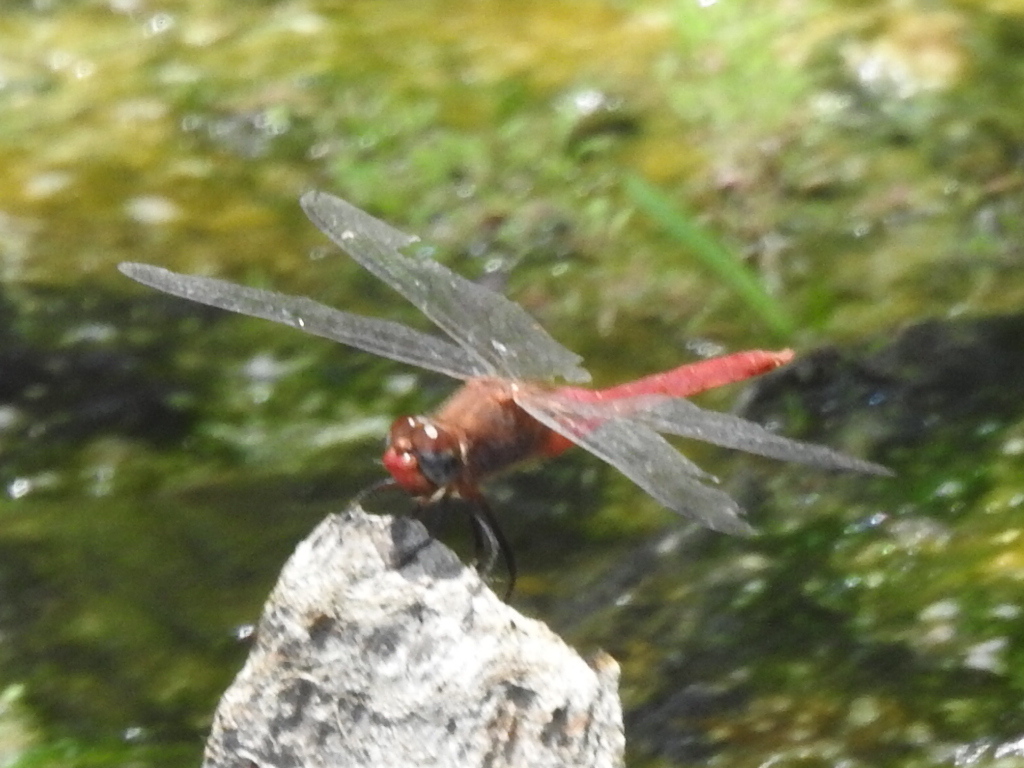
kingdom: Animalia
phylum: Arthropoda
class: Insecta
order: Odonata
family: Libellulidae
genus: Brachymesia
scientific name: Brachymesia furcata
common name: Red-taled pennant
